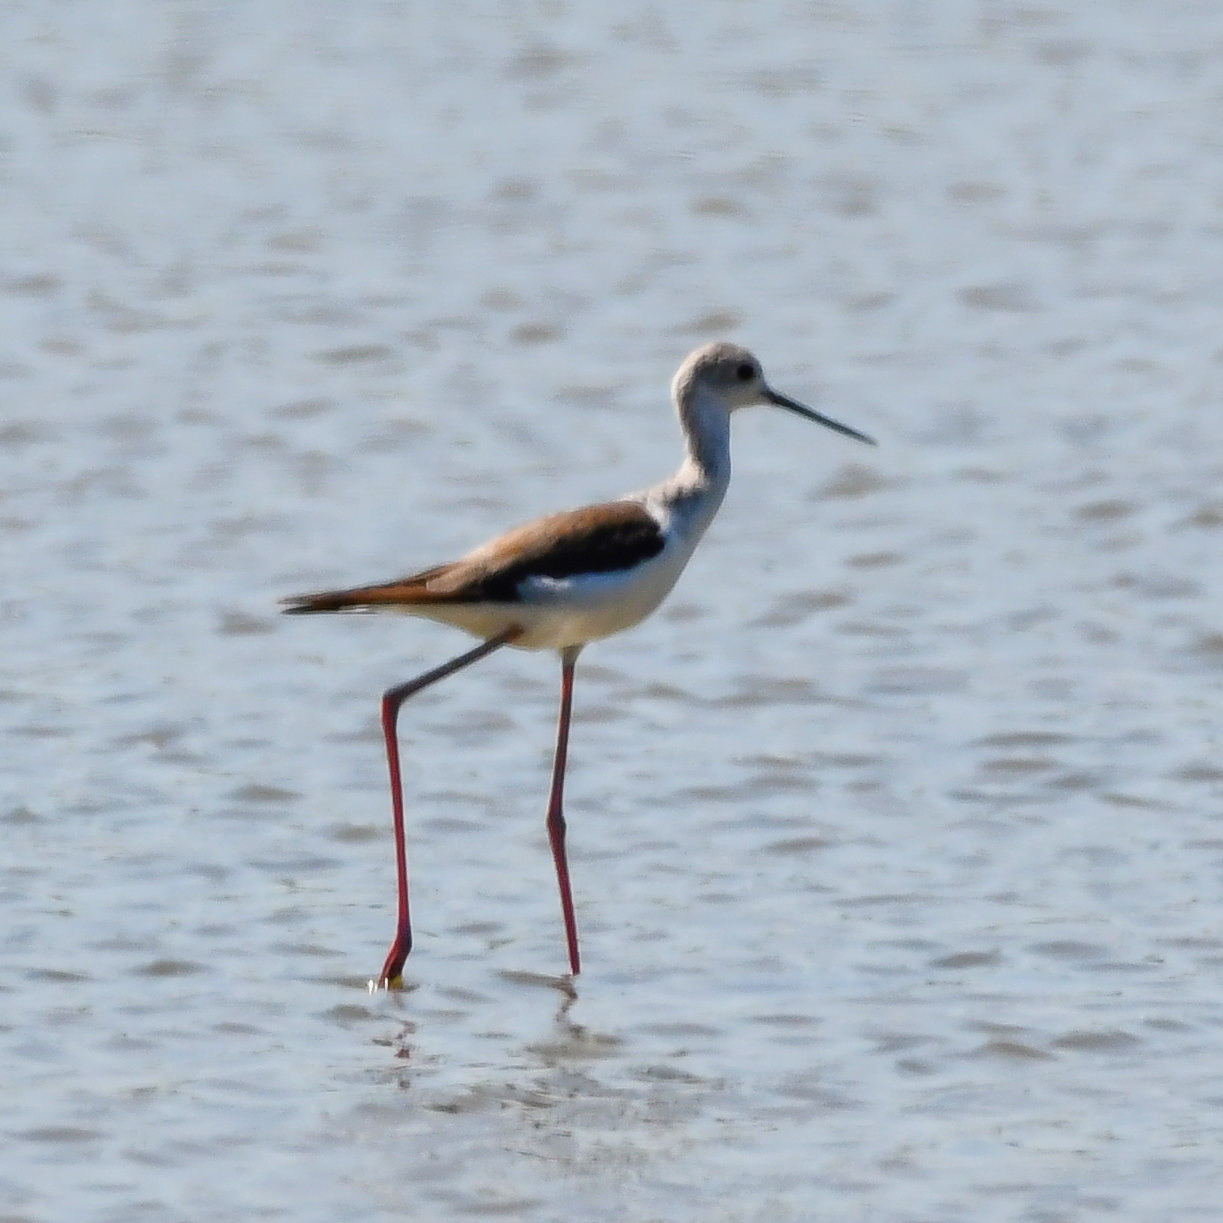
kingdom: Animalia
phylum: Chordata
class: Aves
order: Charadriiformes
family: Recurvirostridae
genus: Himantopus
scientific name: Himantopus himantopus
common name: Black-winged stilt
